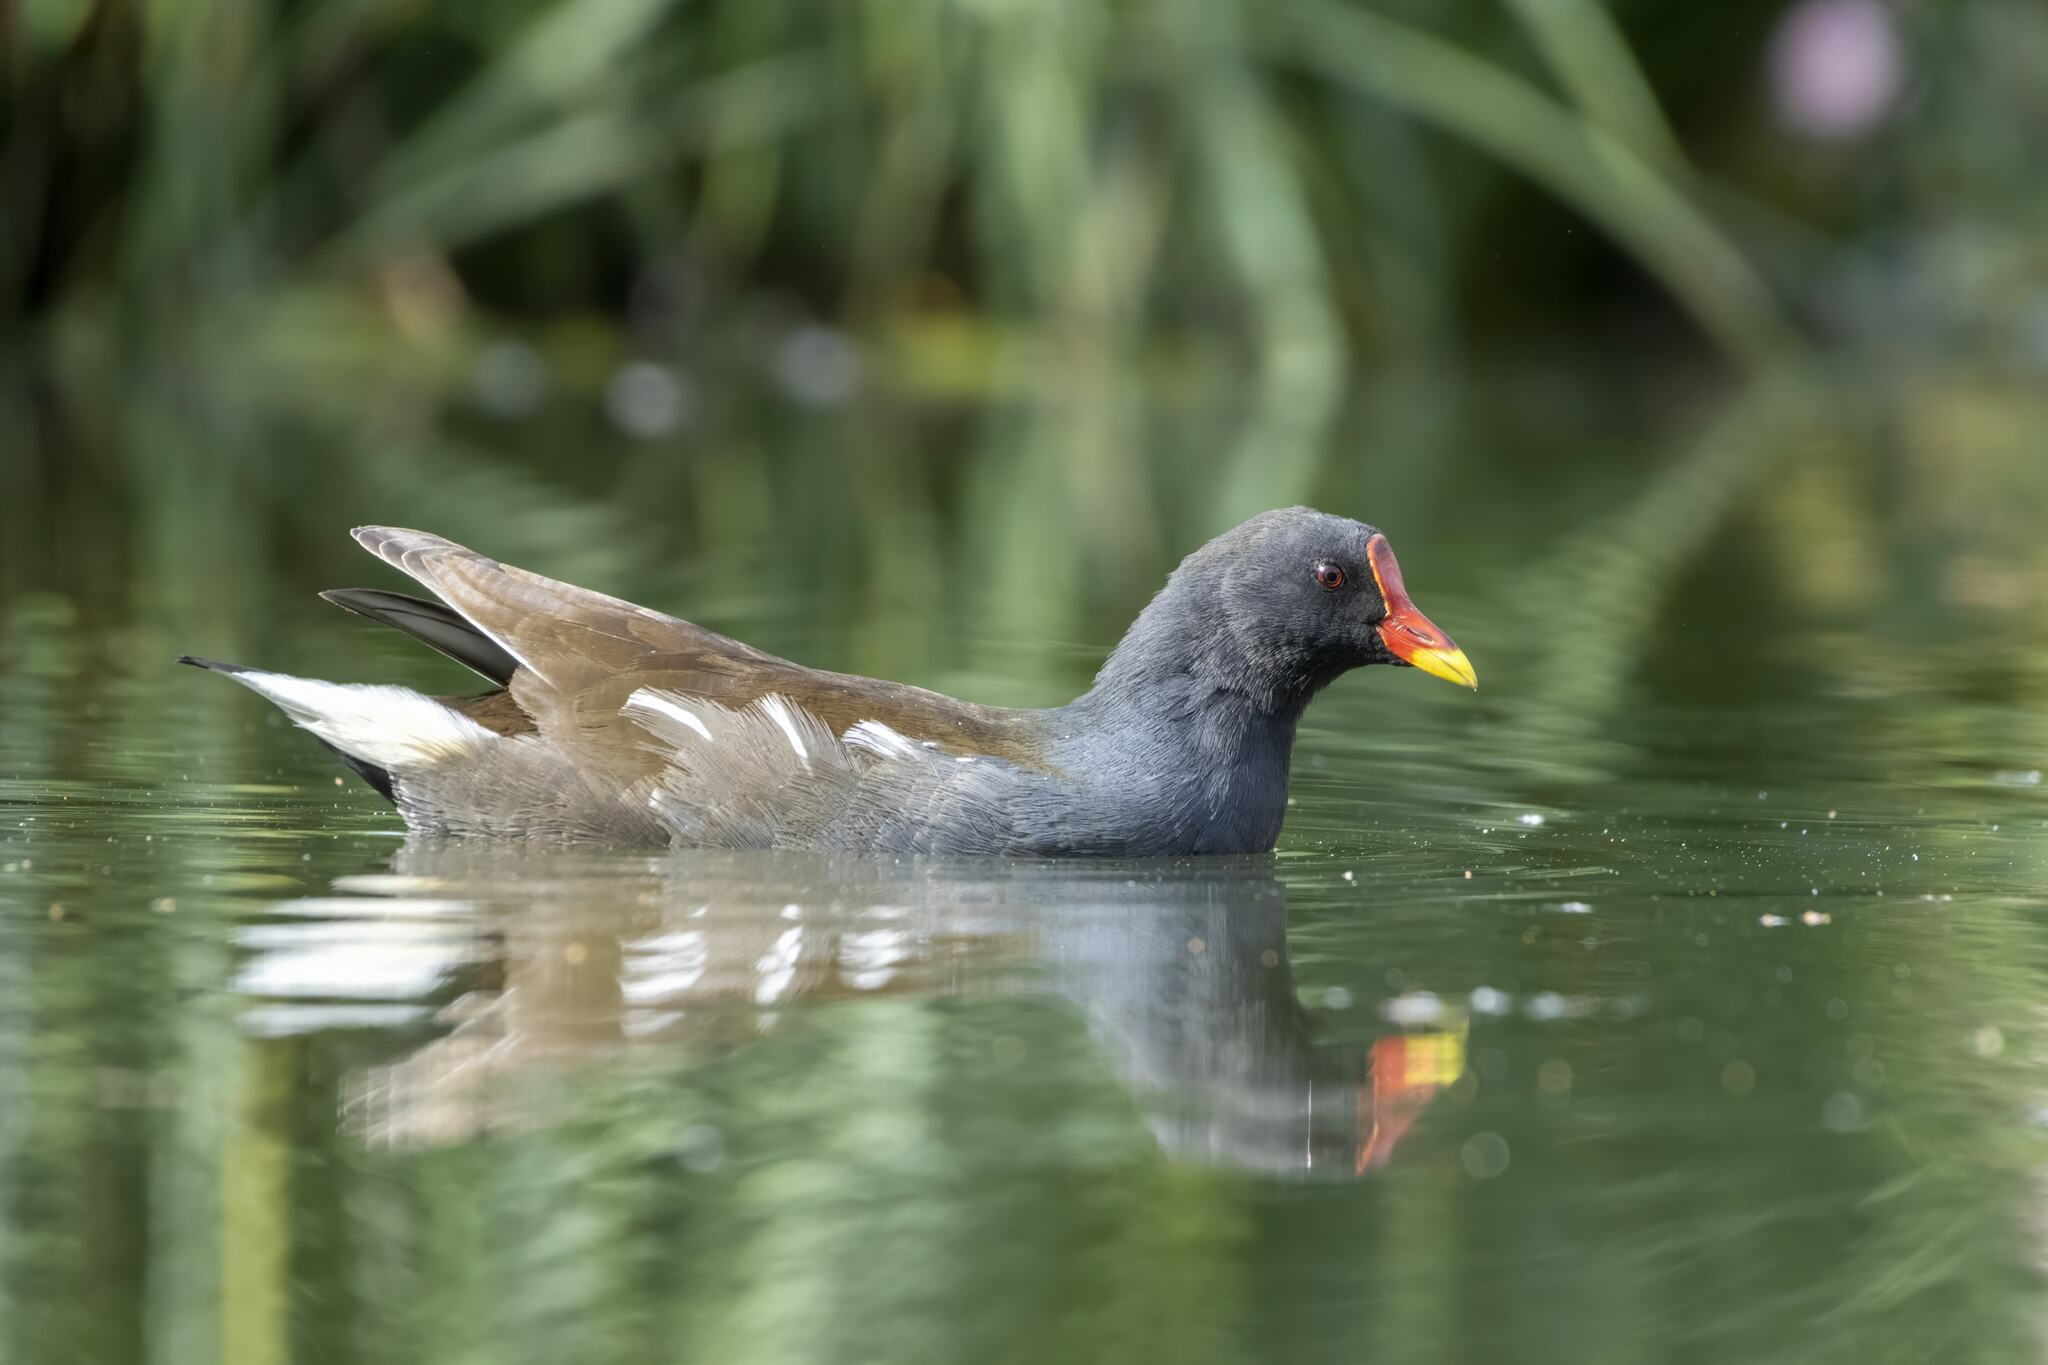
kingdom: Animalia
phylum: Chordata
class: Aves
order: Gruiformes
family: Rallidae
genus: Gallinula
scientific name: Gallinula chloropus
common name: Common moorhen
